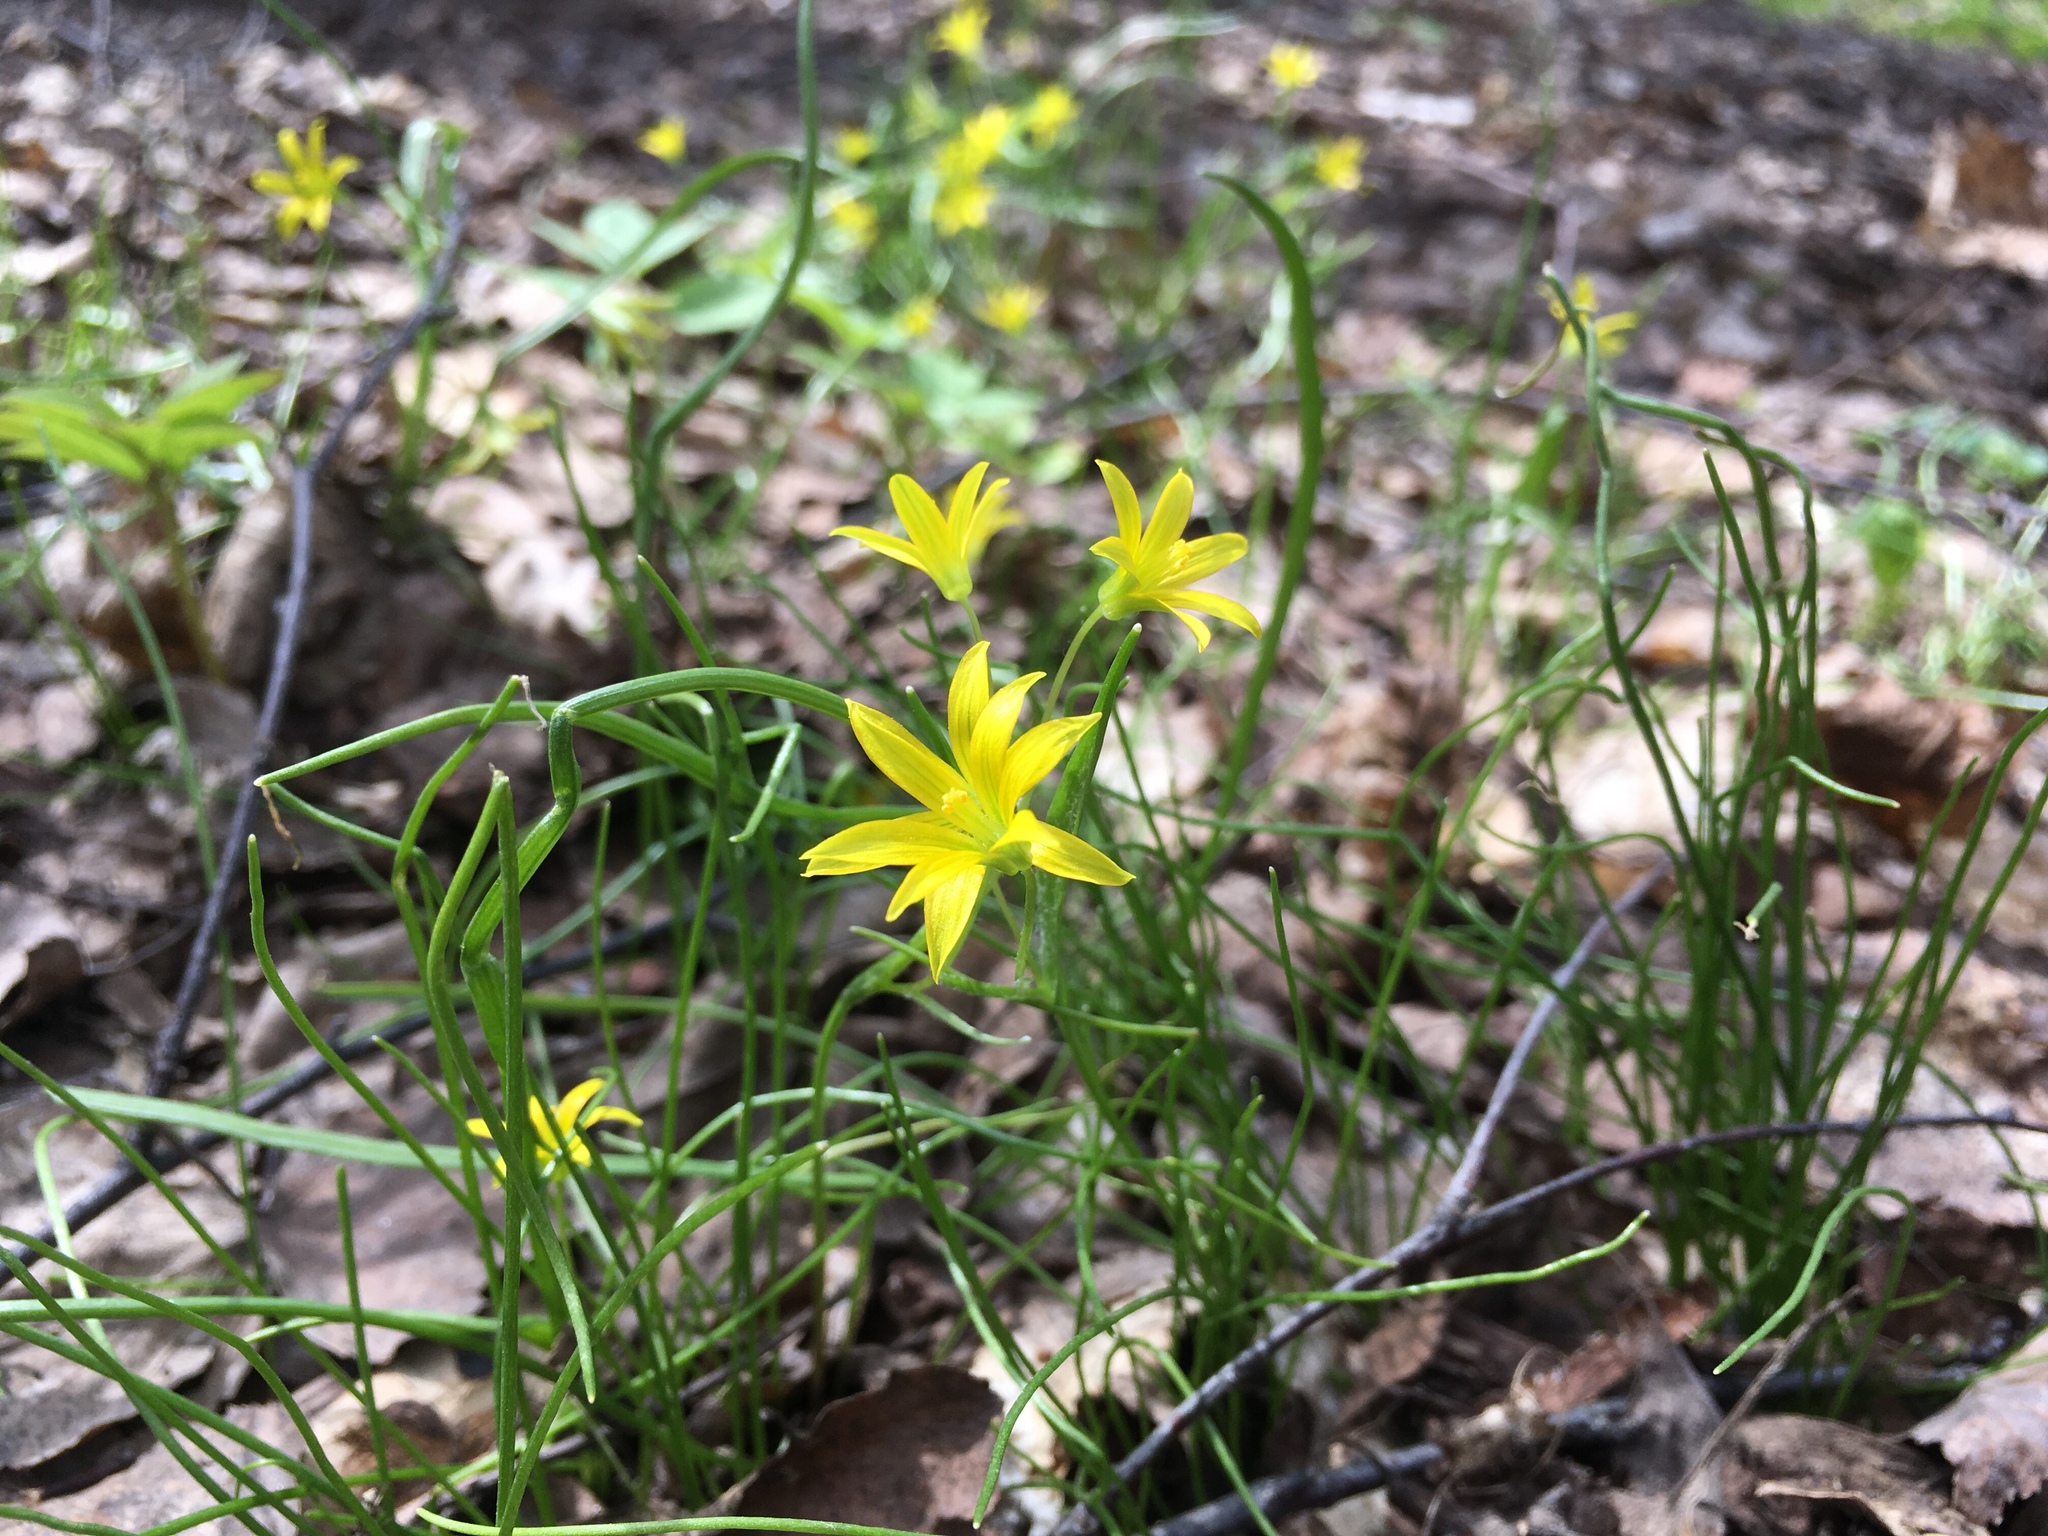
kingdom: Plantae
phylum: Tracheophyta
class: Liliopsida
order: Liliales
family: Liliaceae
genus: Gagea
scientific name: Gagea minima
